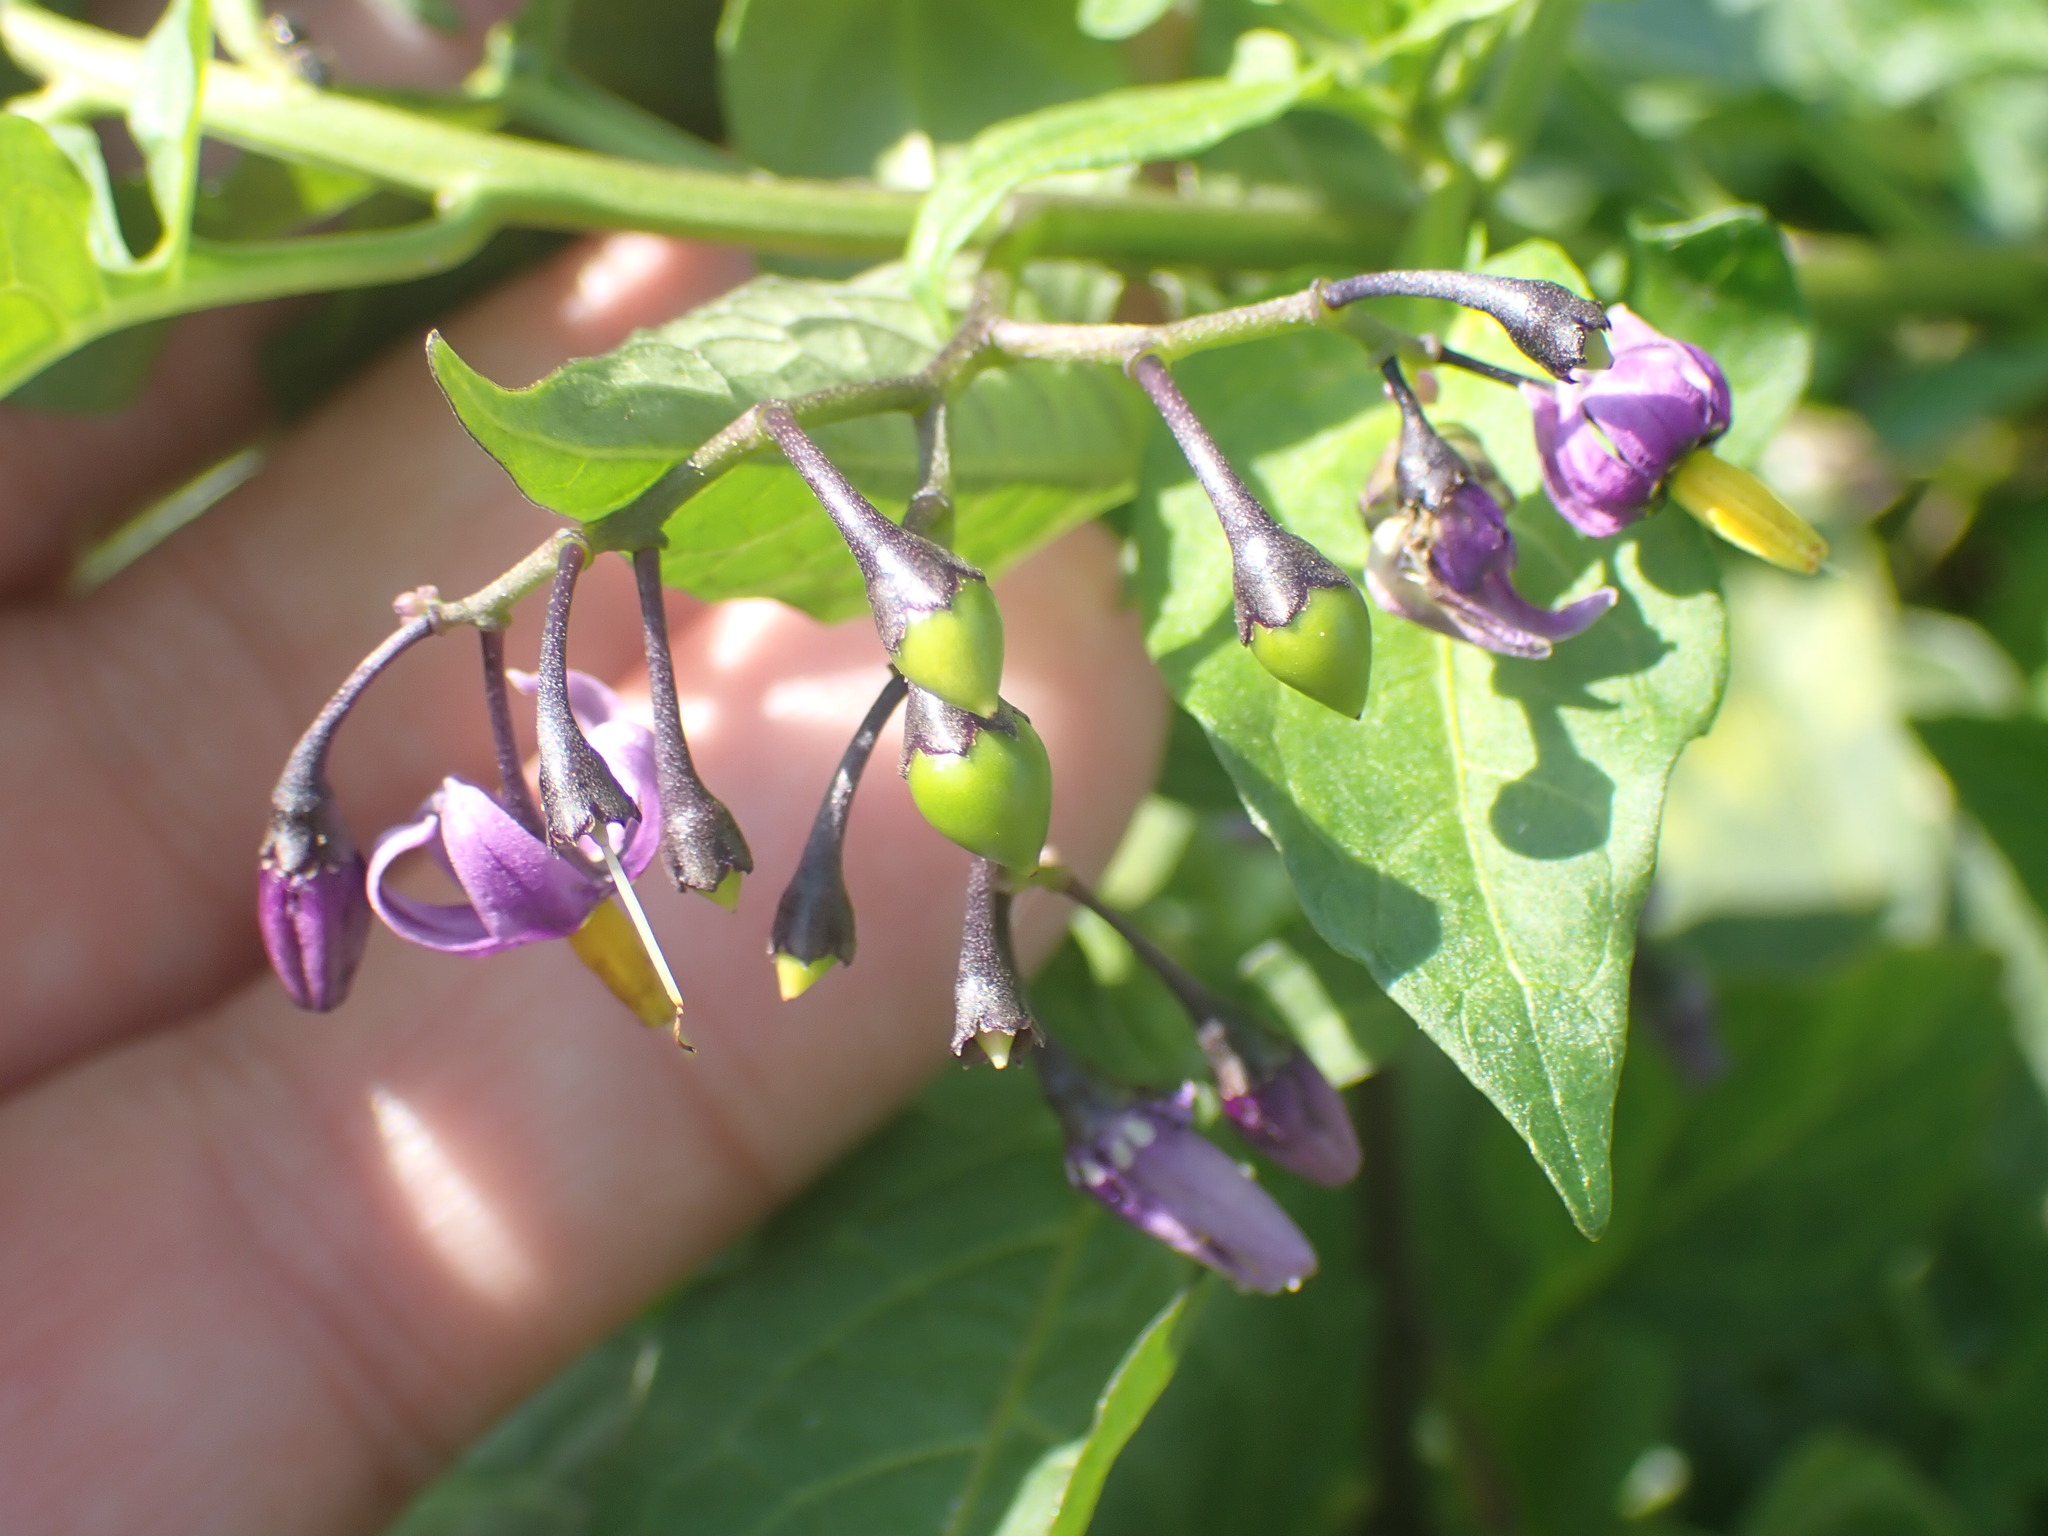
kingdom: Plantae
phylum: Tracheophyta
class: Magnoliopsida
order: Solanales
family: Solanaceae
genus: Solanum
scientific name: Solanum dulcamara
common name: Climbing nightshade
